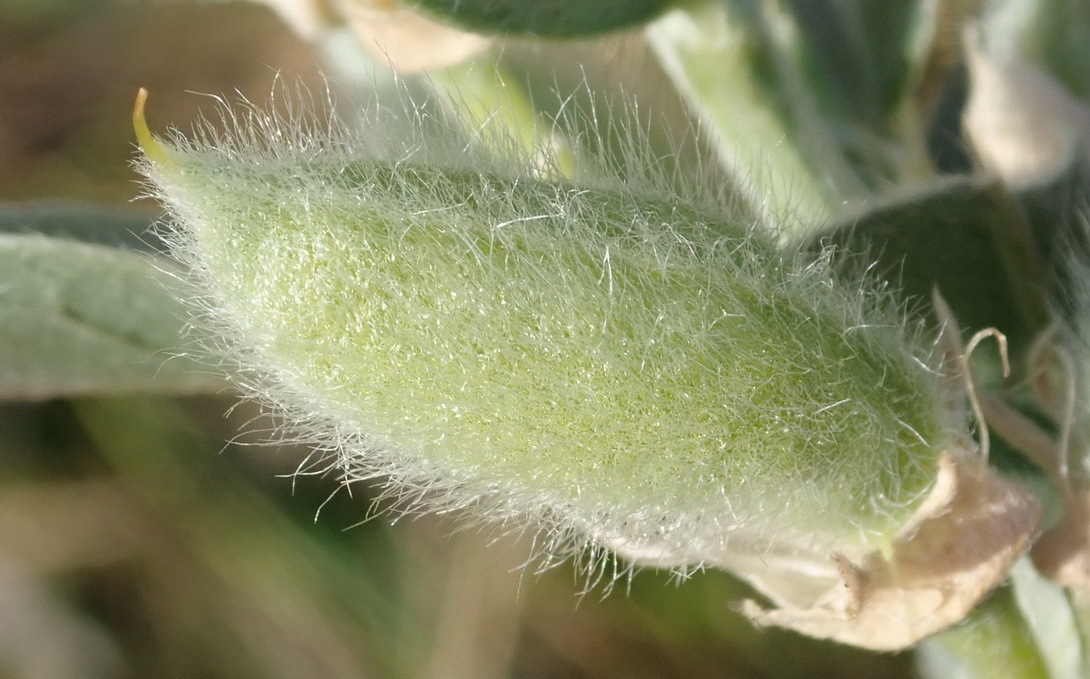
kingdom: Plantae
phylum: Tracheophyta
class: Magnoliopsida
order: Fabales
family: Fabaceae
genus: Podalyria
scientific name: Podalyria myrtillifolia
